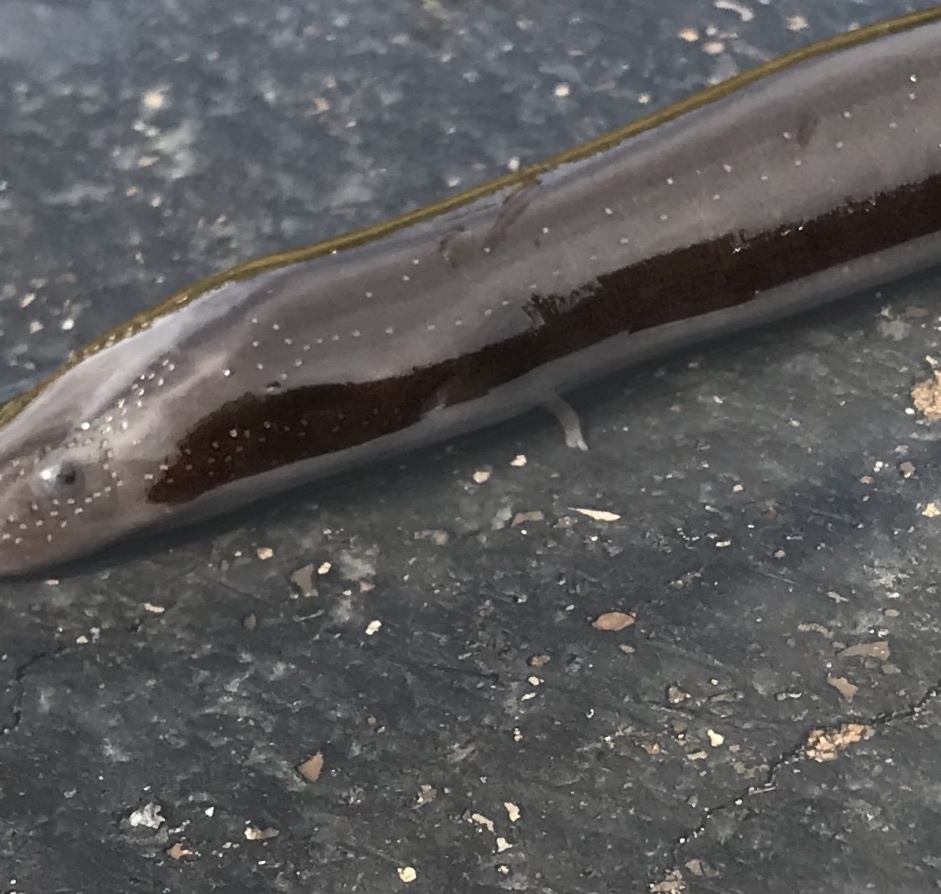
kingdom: Animalia
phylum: Chordata
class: Amphibia
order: Caudata
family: Amphiumidae
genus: Amphiuma
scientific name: Amphiuma means
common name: Two-toed amphiuma
